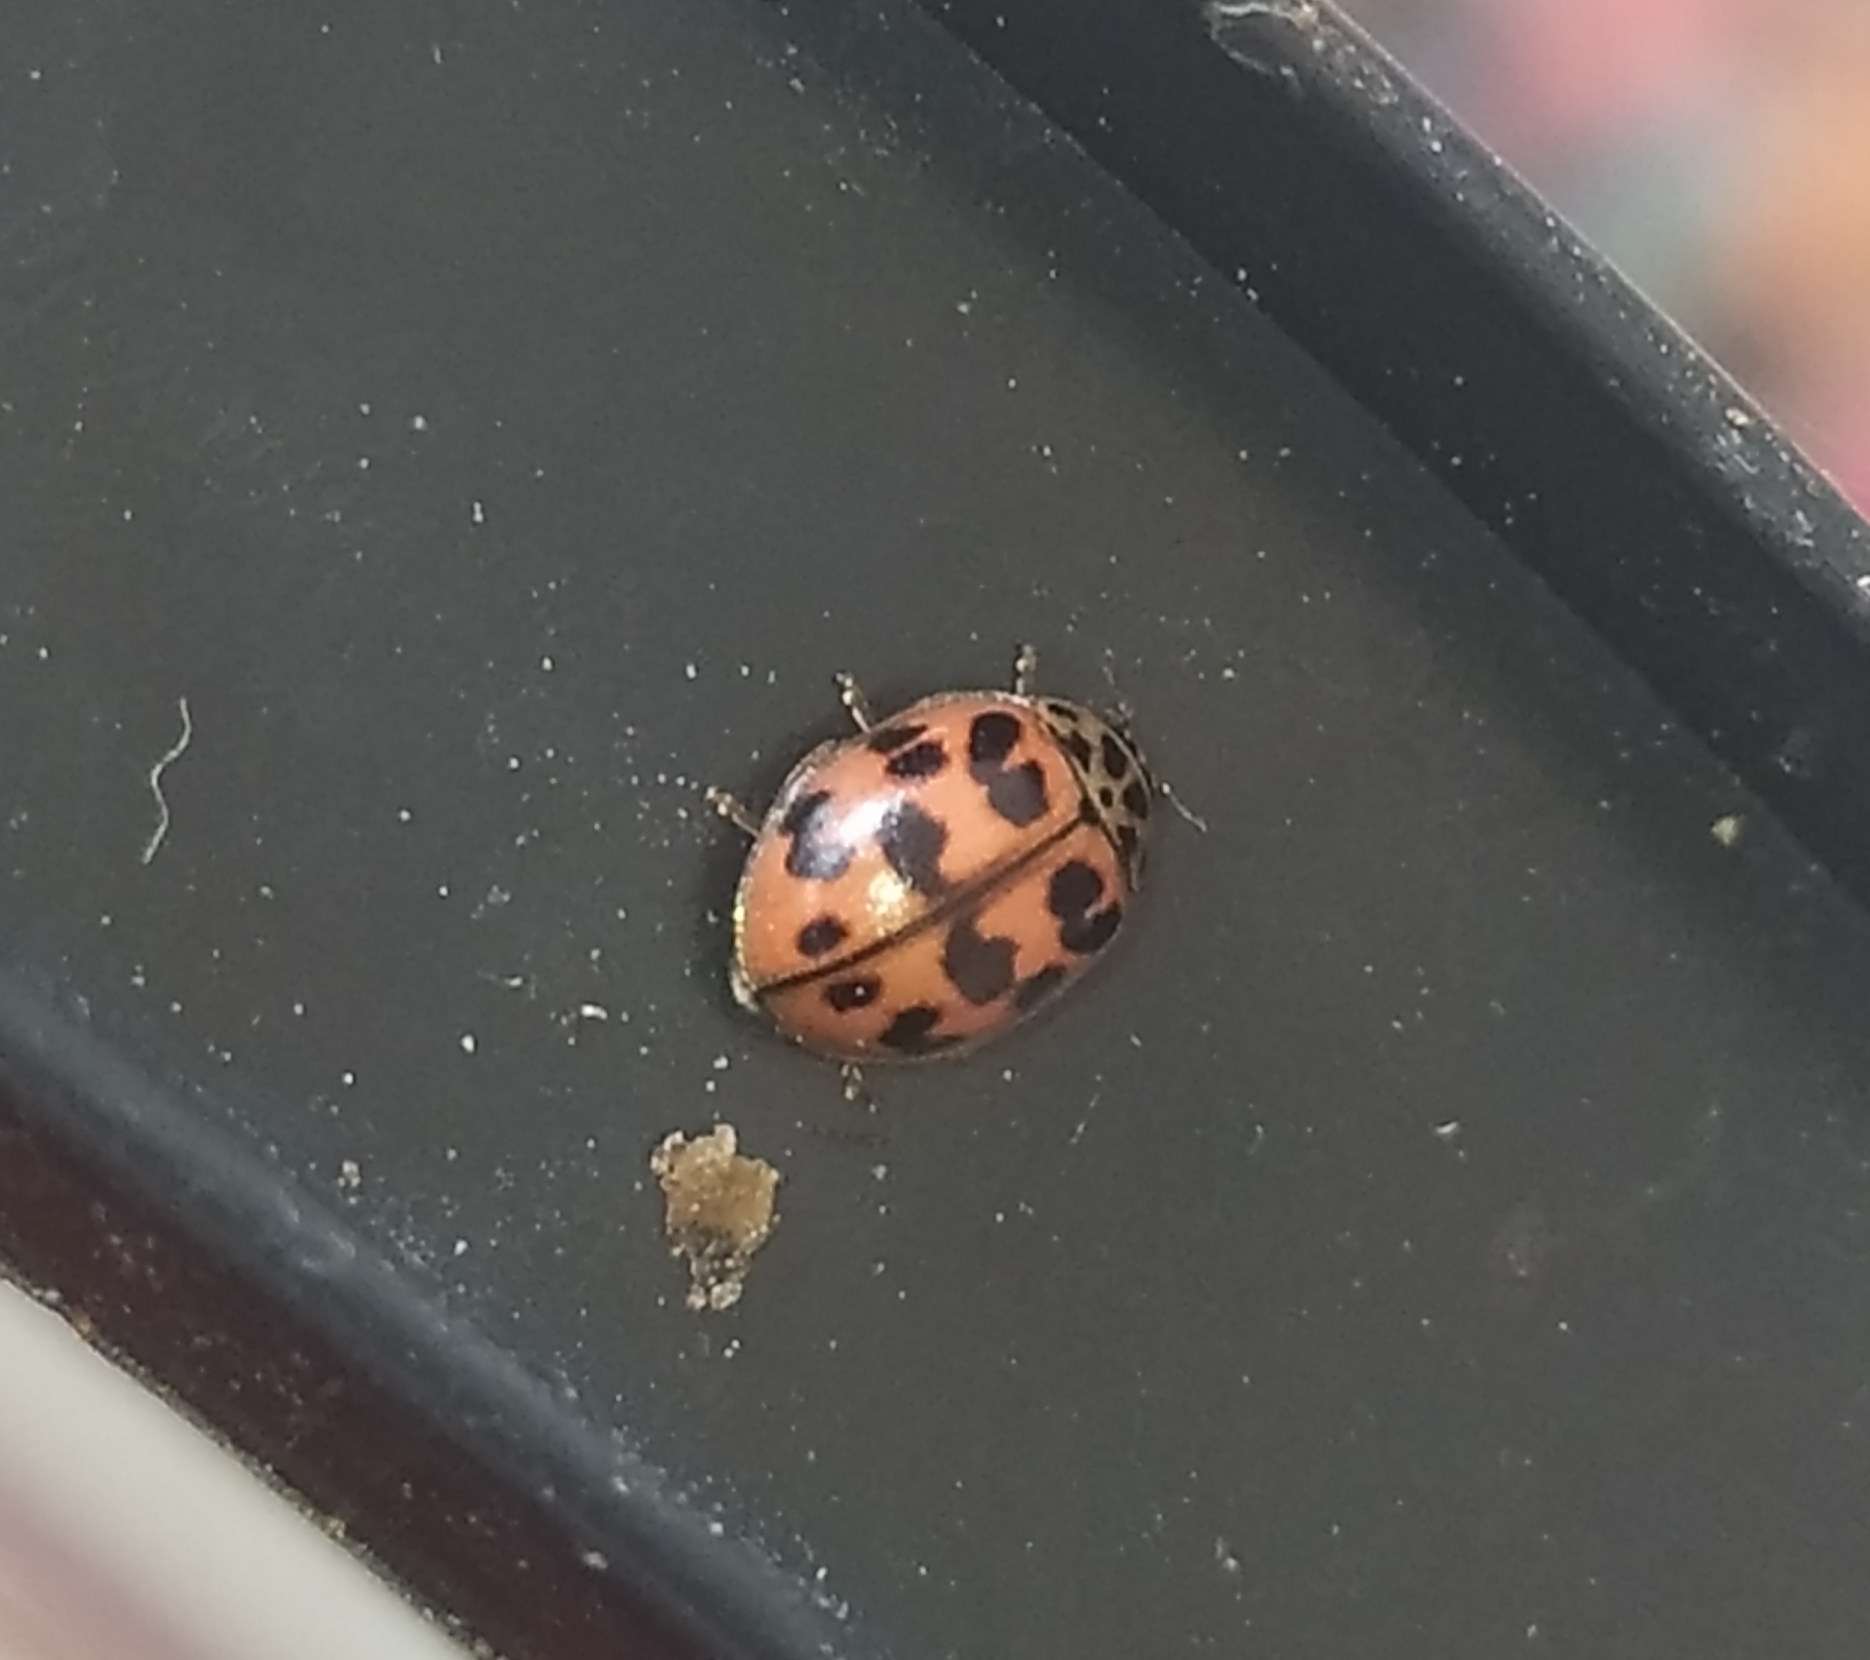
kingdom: Animalia
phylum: Arthropoda
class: Insecta
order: Coleoptera
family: Coccinellidae
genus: Oenopia
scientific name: Oenopia conglobata
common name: Ladybird beetle
